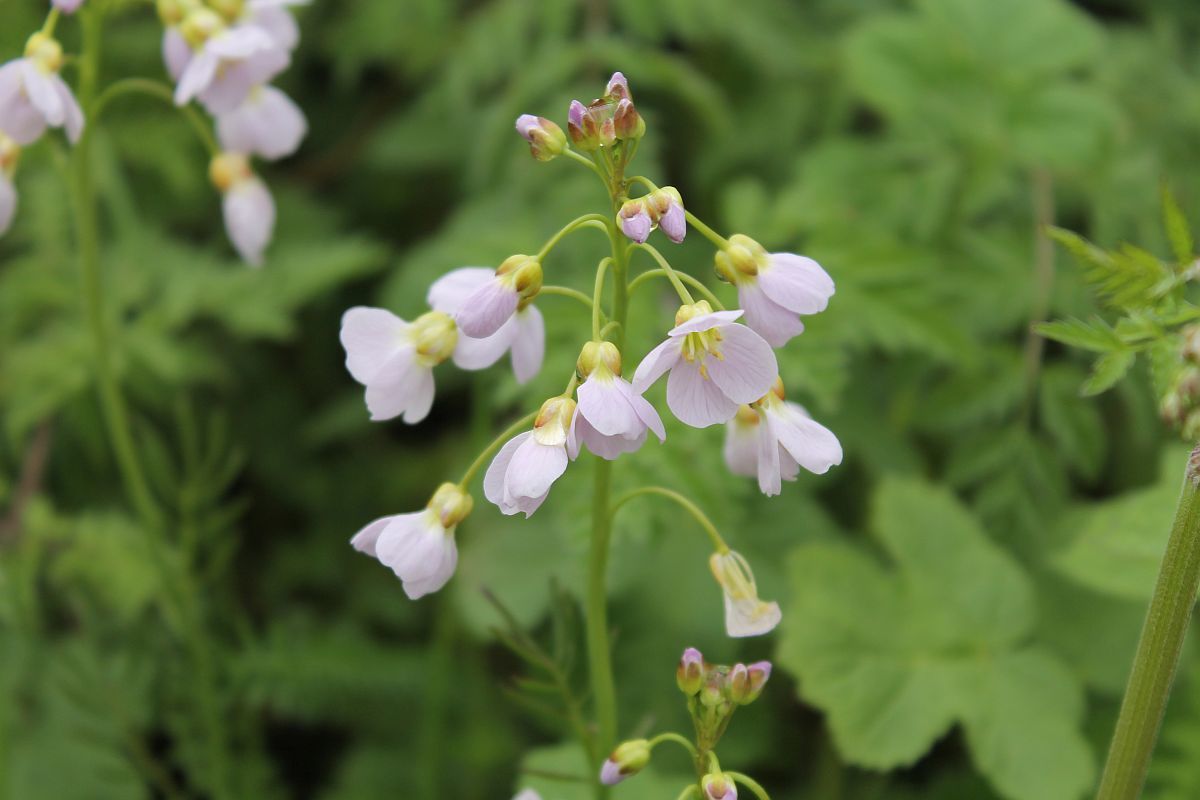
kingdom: Plantae
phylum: Tracheophyta
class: Magnoliopsida
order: Brassicales
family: Brassicaceae
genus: Cardamine
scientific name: Cardamine pratensis
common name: Cuckoo flower
